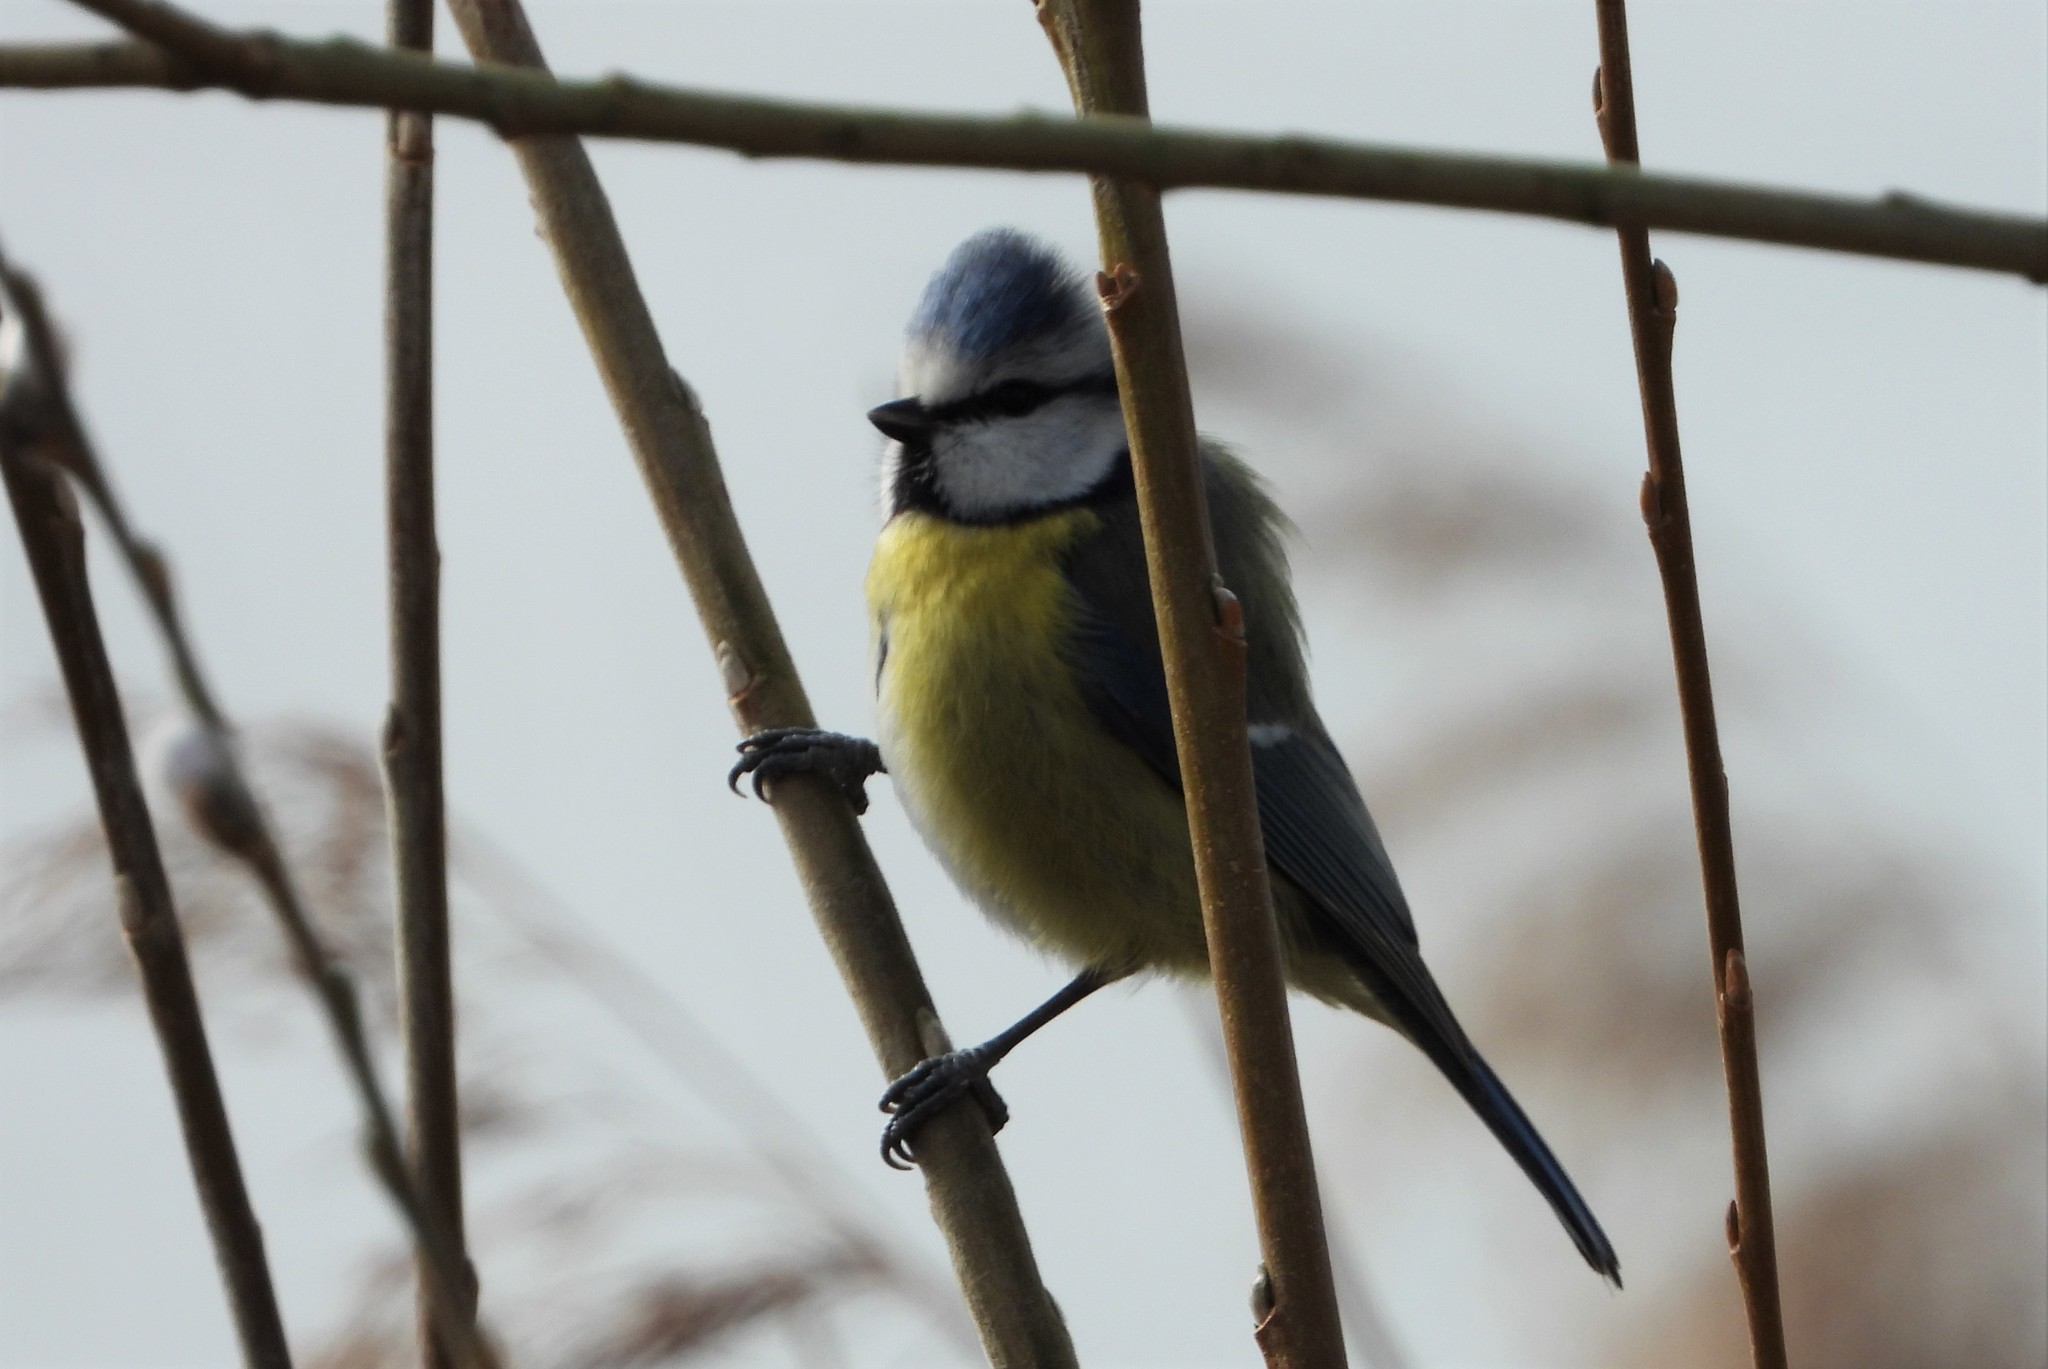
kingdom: Animalia
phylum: Chordata
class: Aves
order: Passeriformes
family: Paridae
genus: Cyanistes
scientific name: Cyanistes caeruleus
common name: Eurasian blue tit
